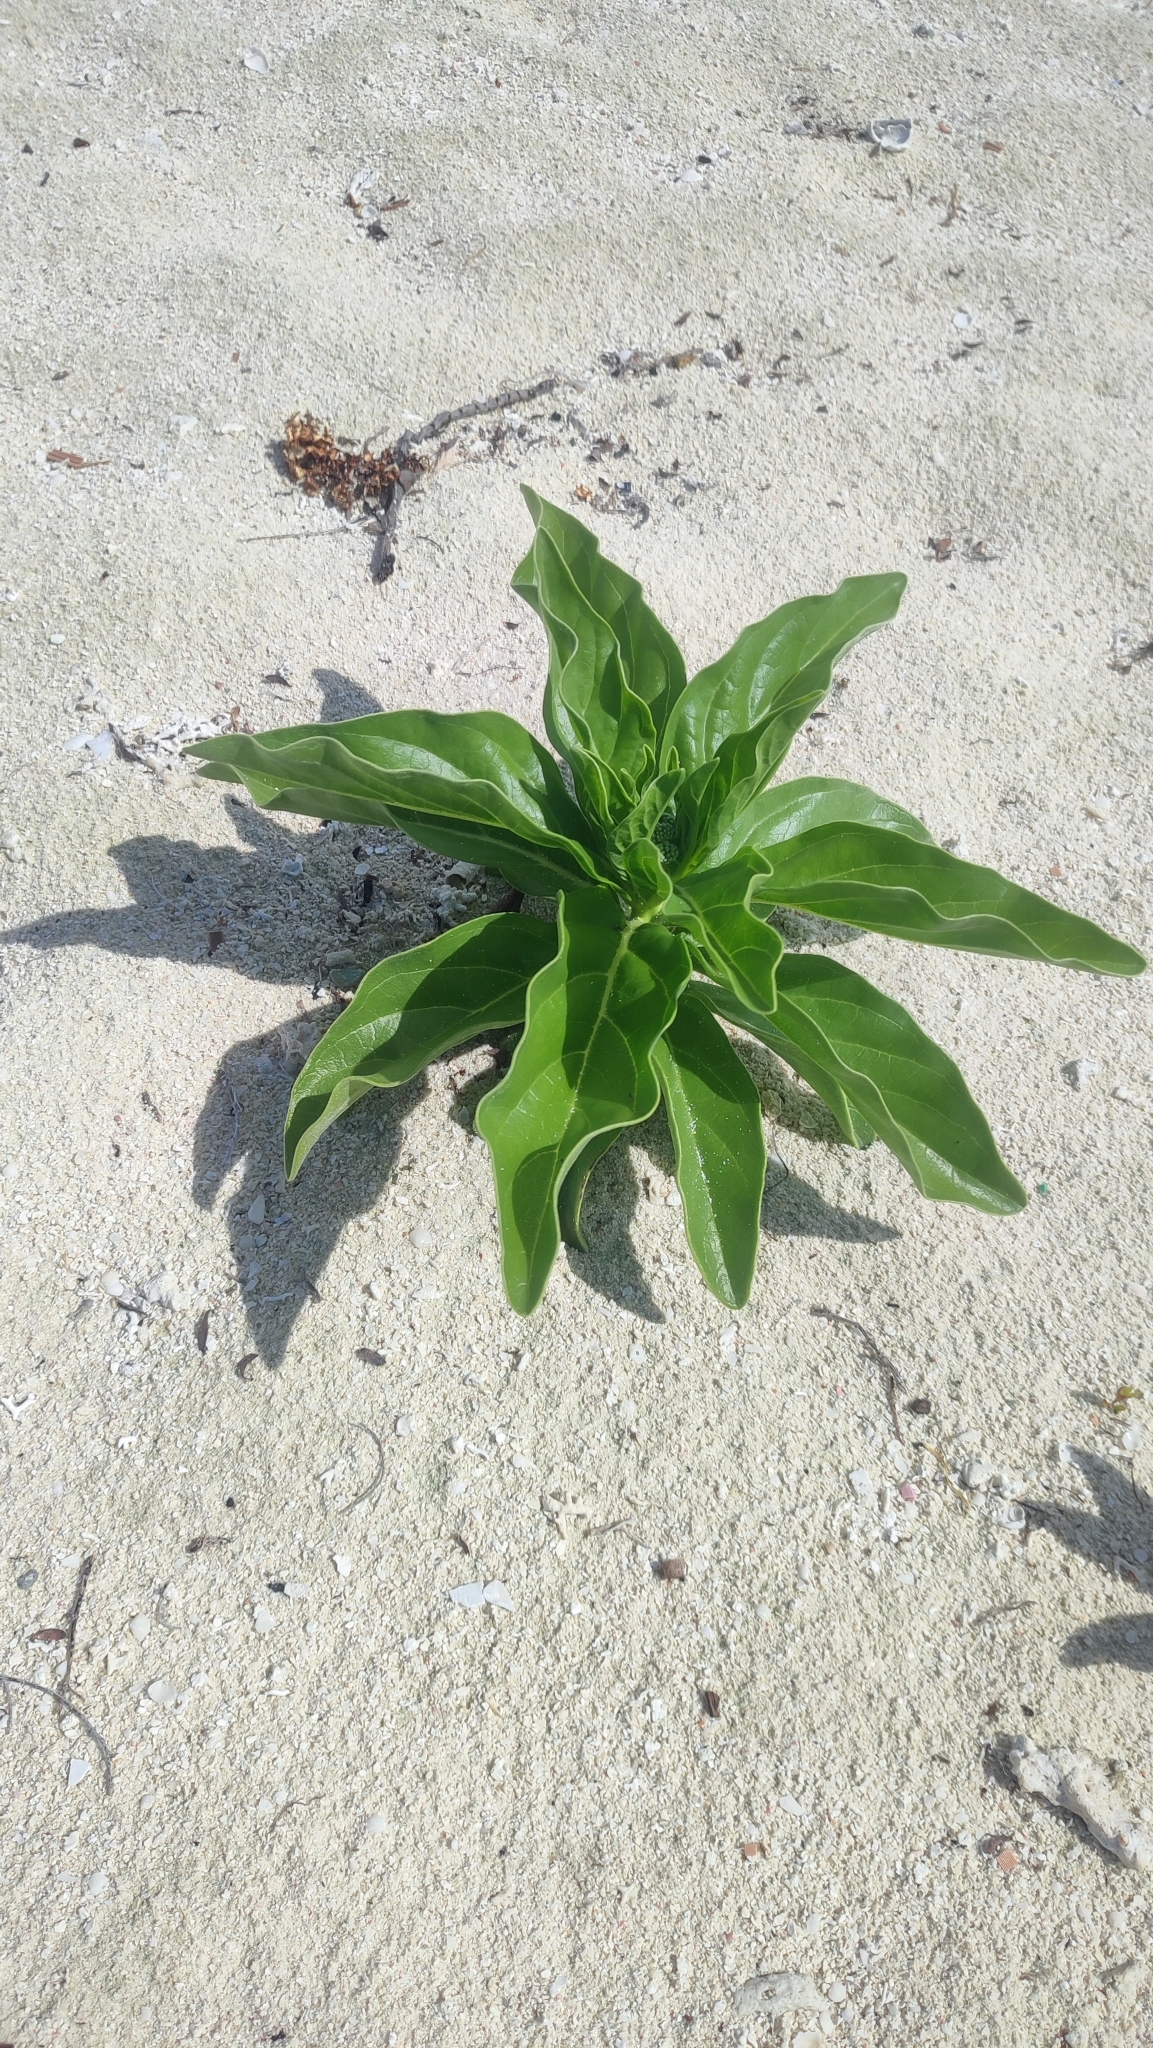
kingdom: Plantae
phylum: Tracheophyta
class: Magnoliopsida
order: Boraginales
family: Heliotropiaceae
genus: Heliotropium
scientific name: Heliotropium velutinum
